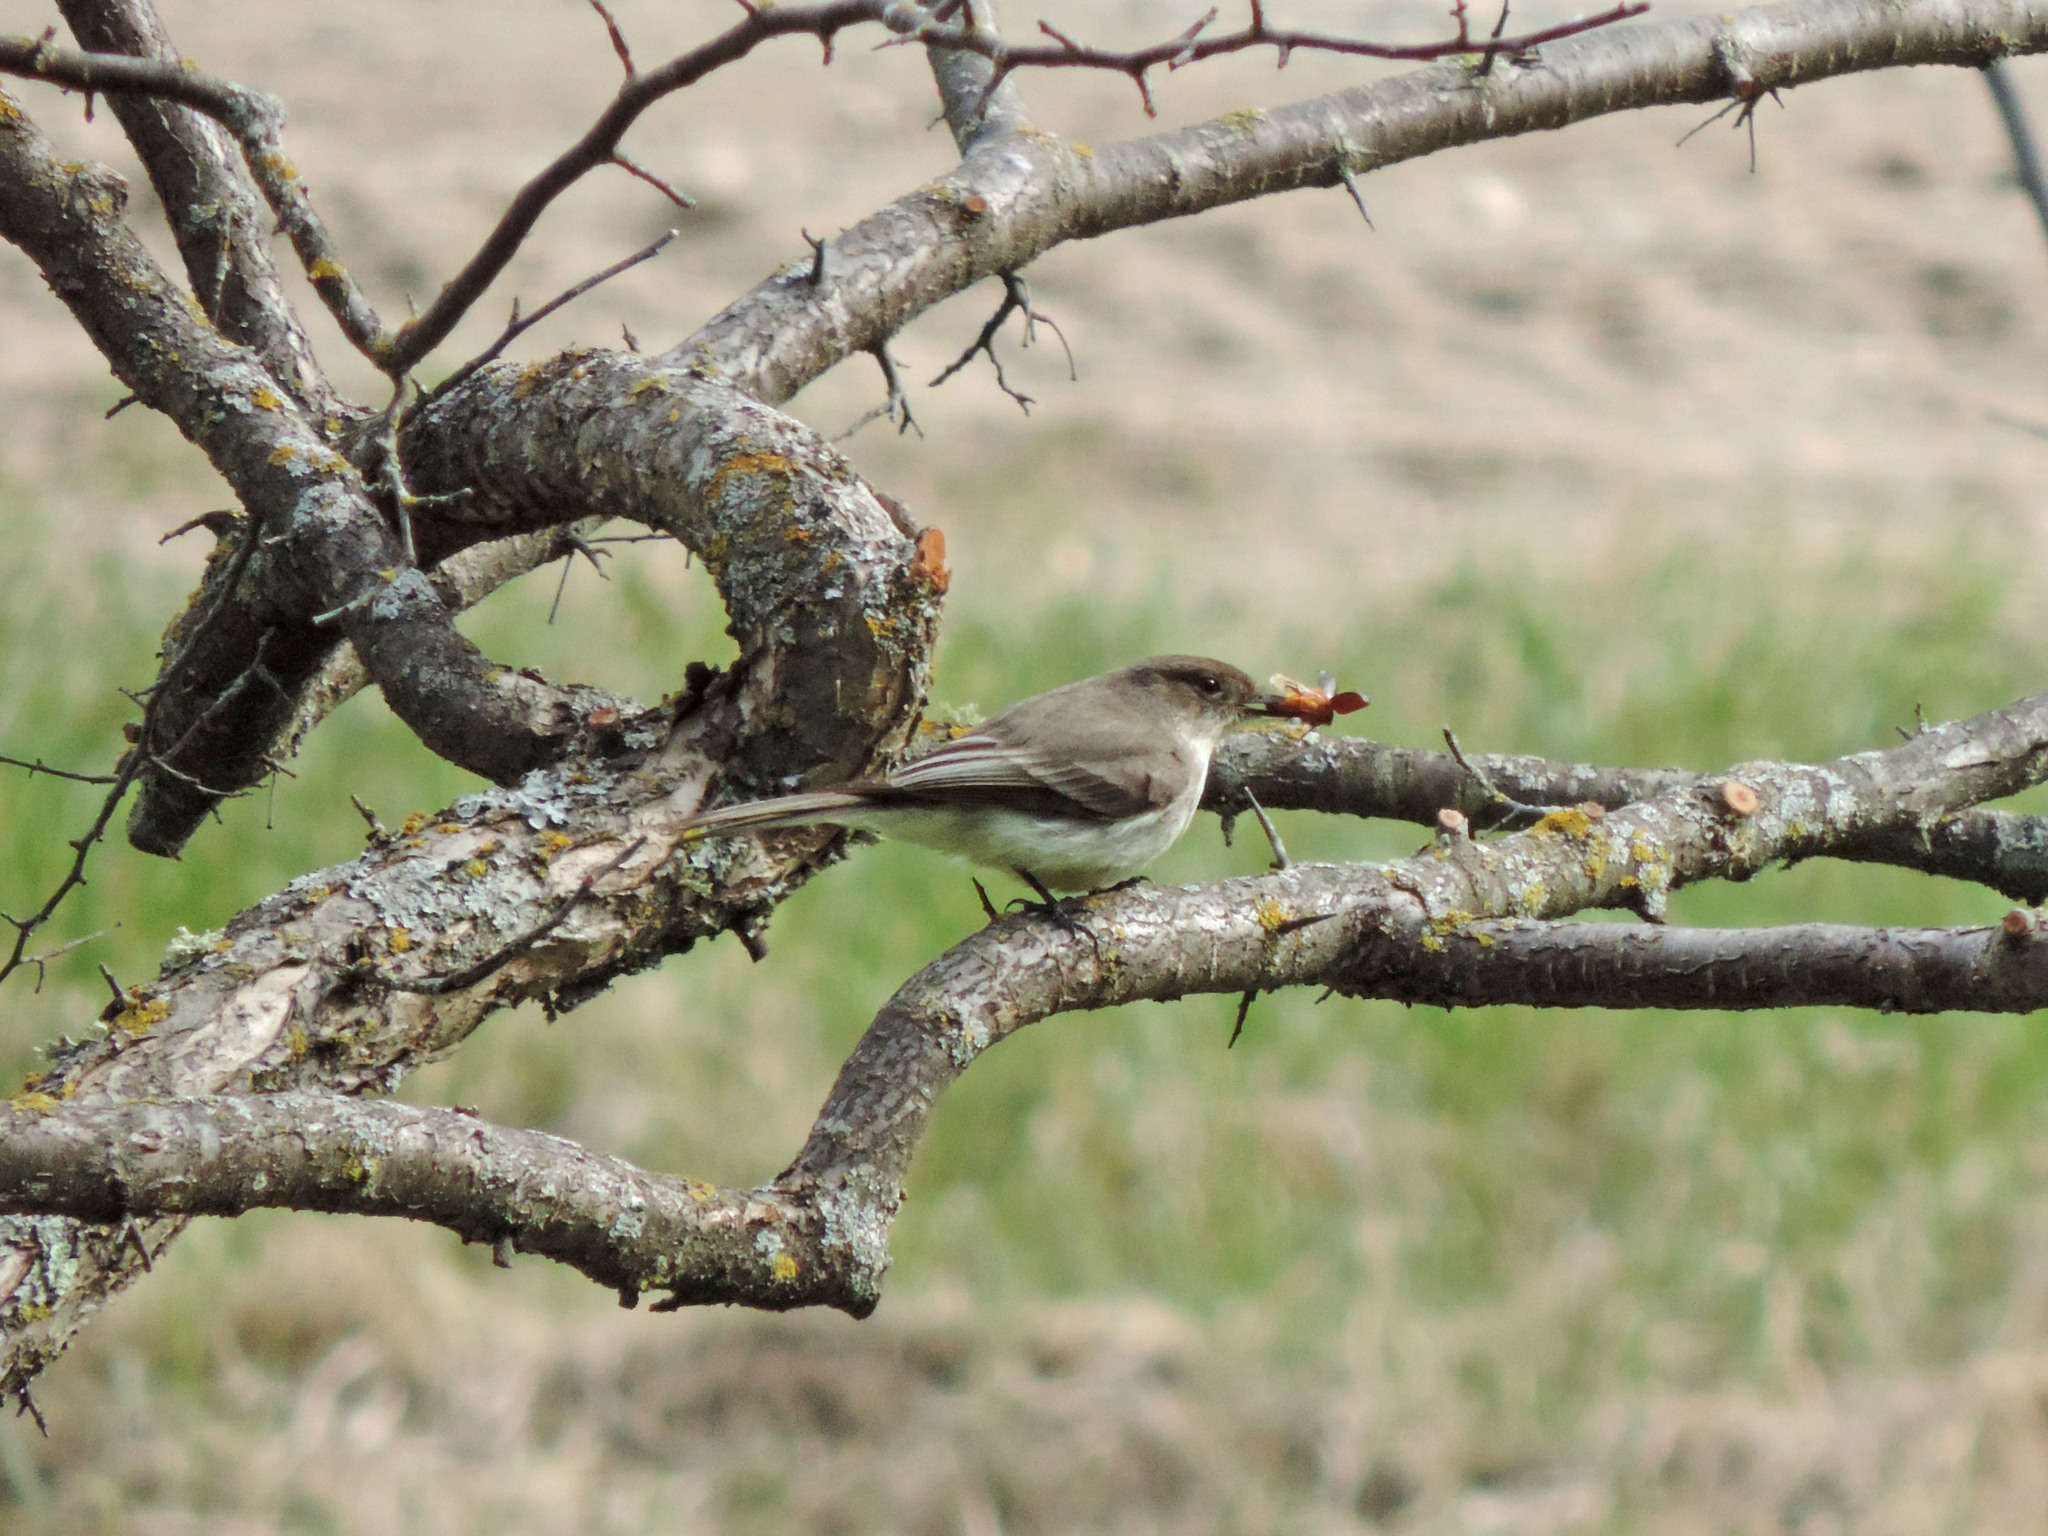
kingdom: Animalia
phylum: Chordata
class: Aves
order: Passeriformes
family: Tyrannidae
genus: Sayornis
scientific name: Sayornis phoebe
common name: Eastern phoebe
